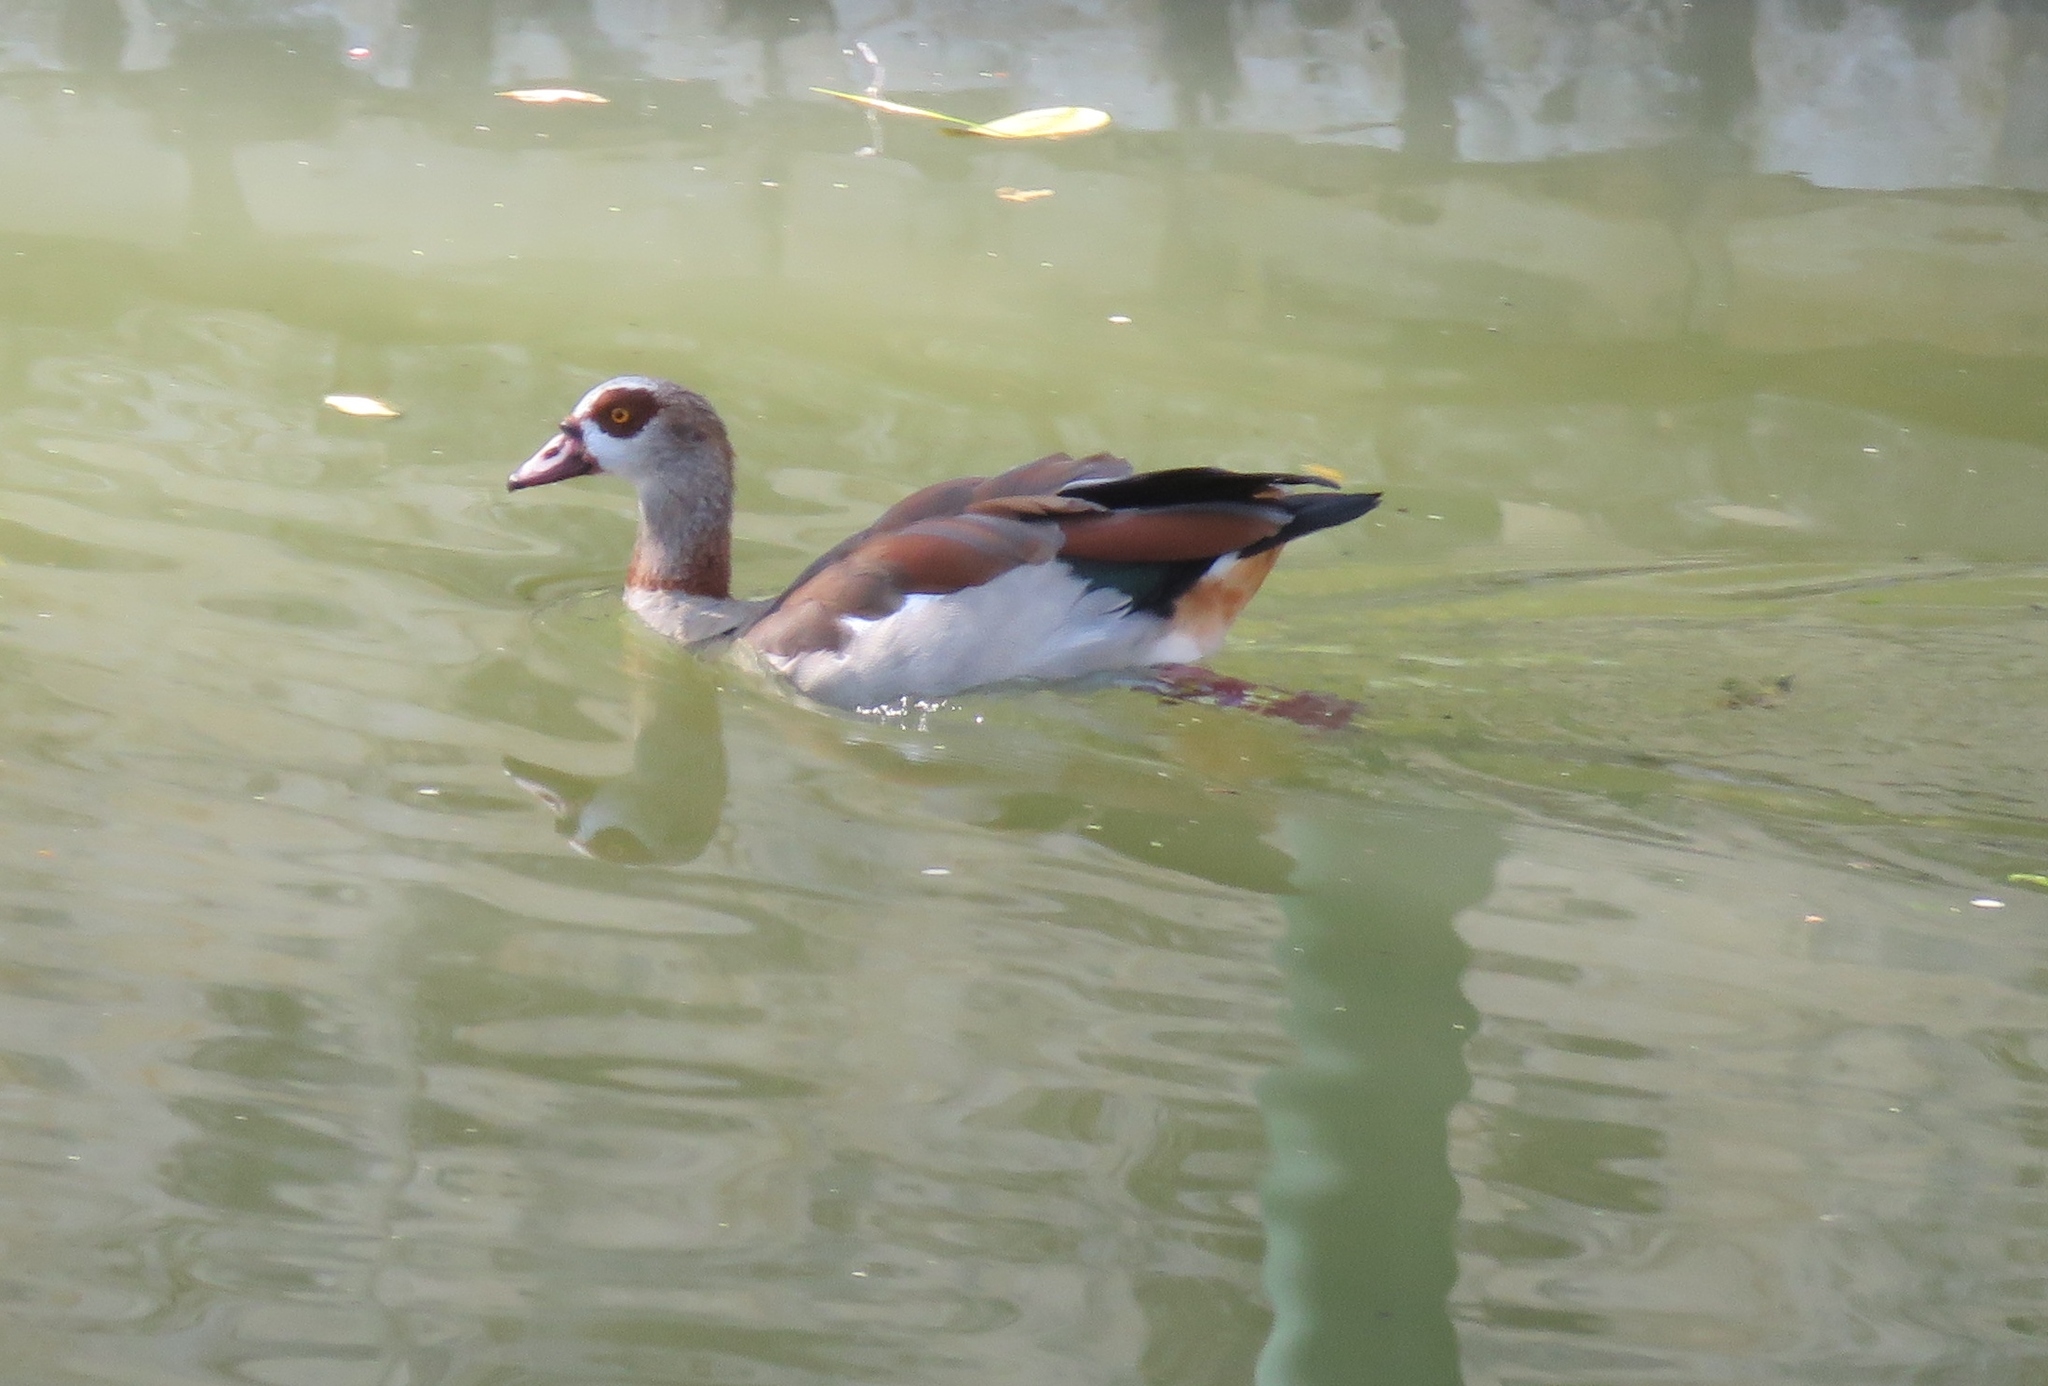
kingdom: Animalia
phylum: Chordata
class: Aves
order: Anseriformes
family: Anatidae
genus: Alopochen
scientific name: Alopochen aegyptiaca
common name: Egyptian goose
